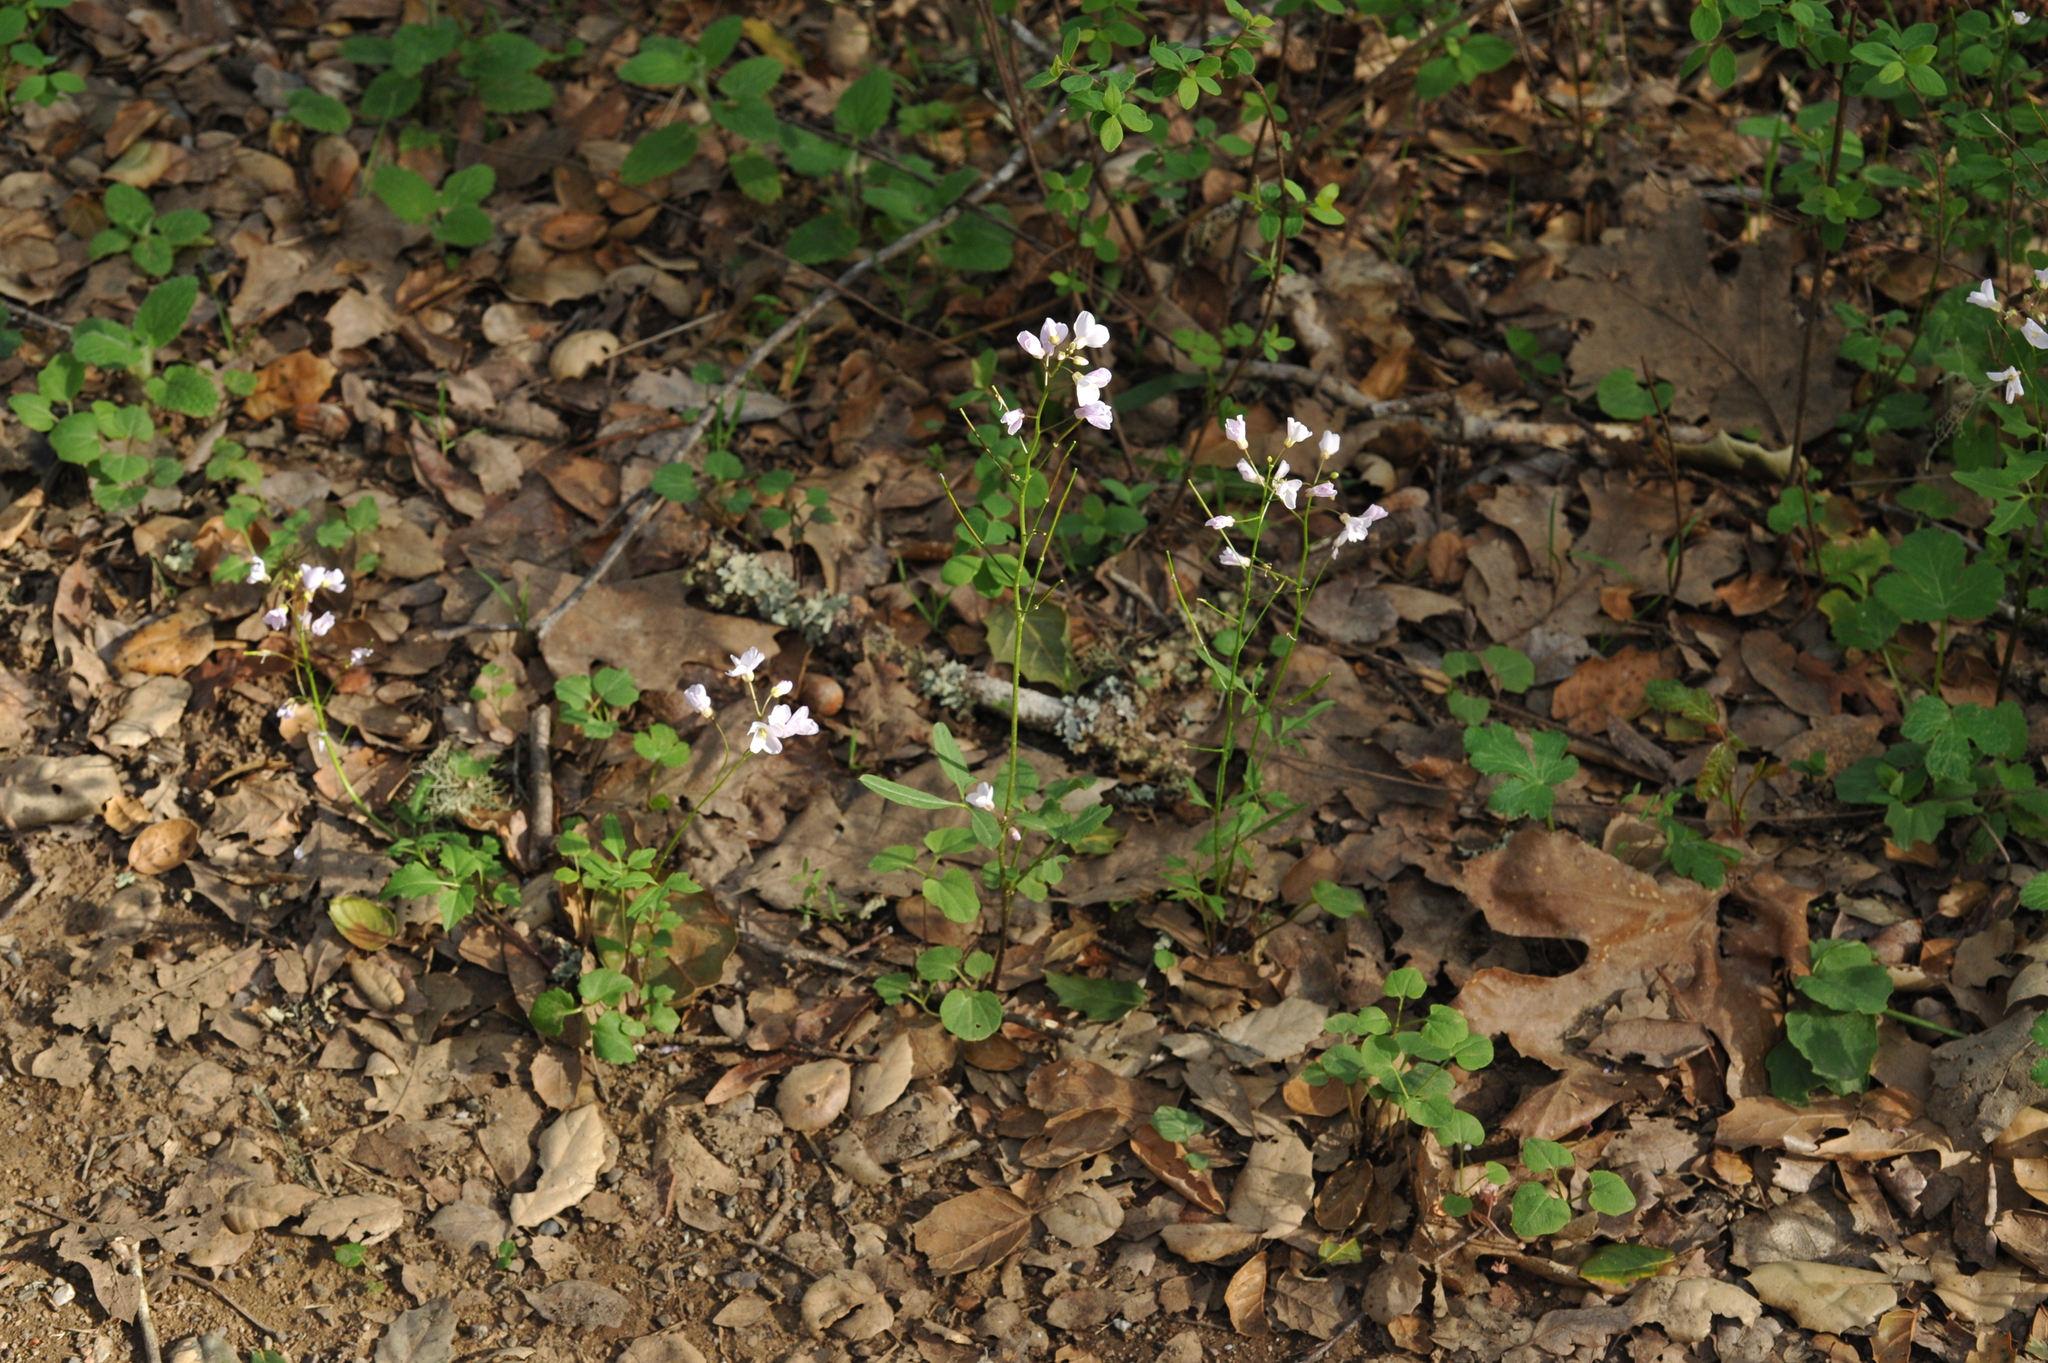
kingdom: Plantae
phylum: Tracheophyta
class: Magnoliopsida
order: Brassicales
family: Brassicaceae
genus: Cardamine
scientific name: Cardamine californica
